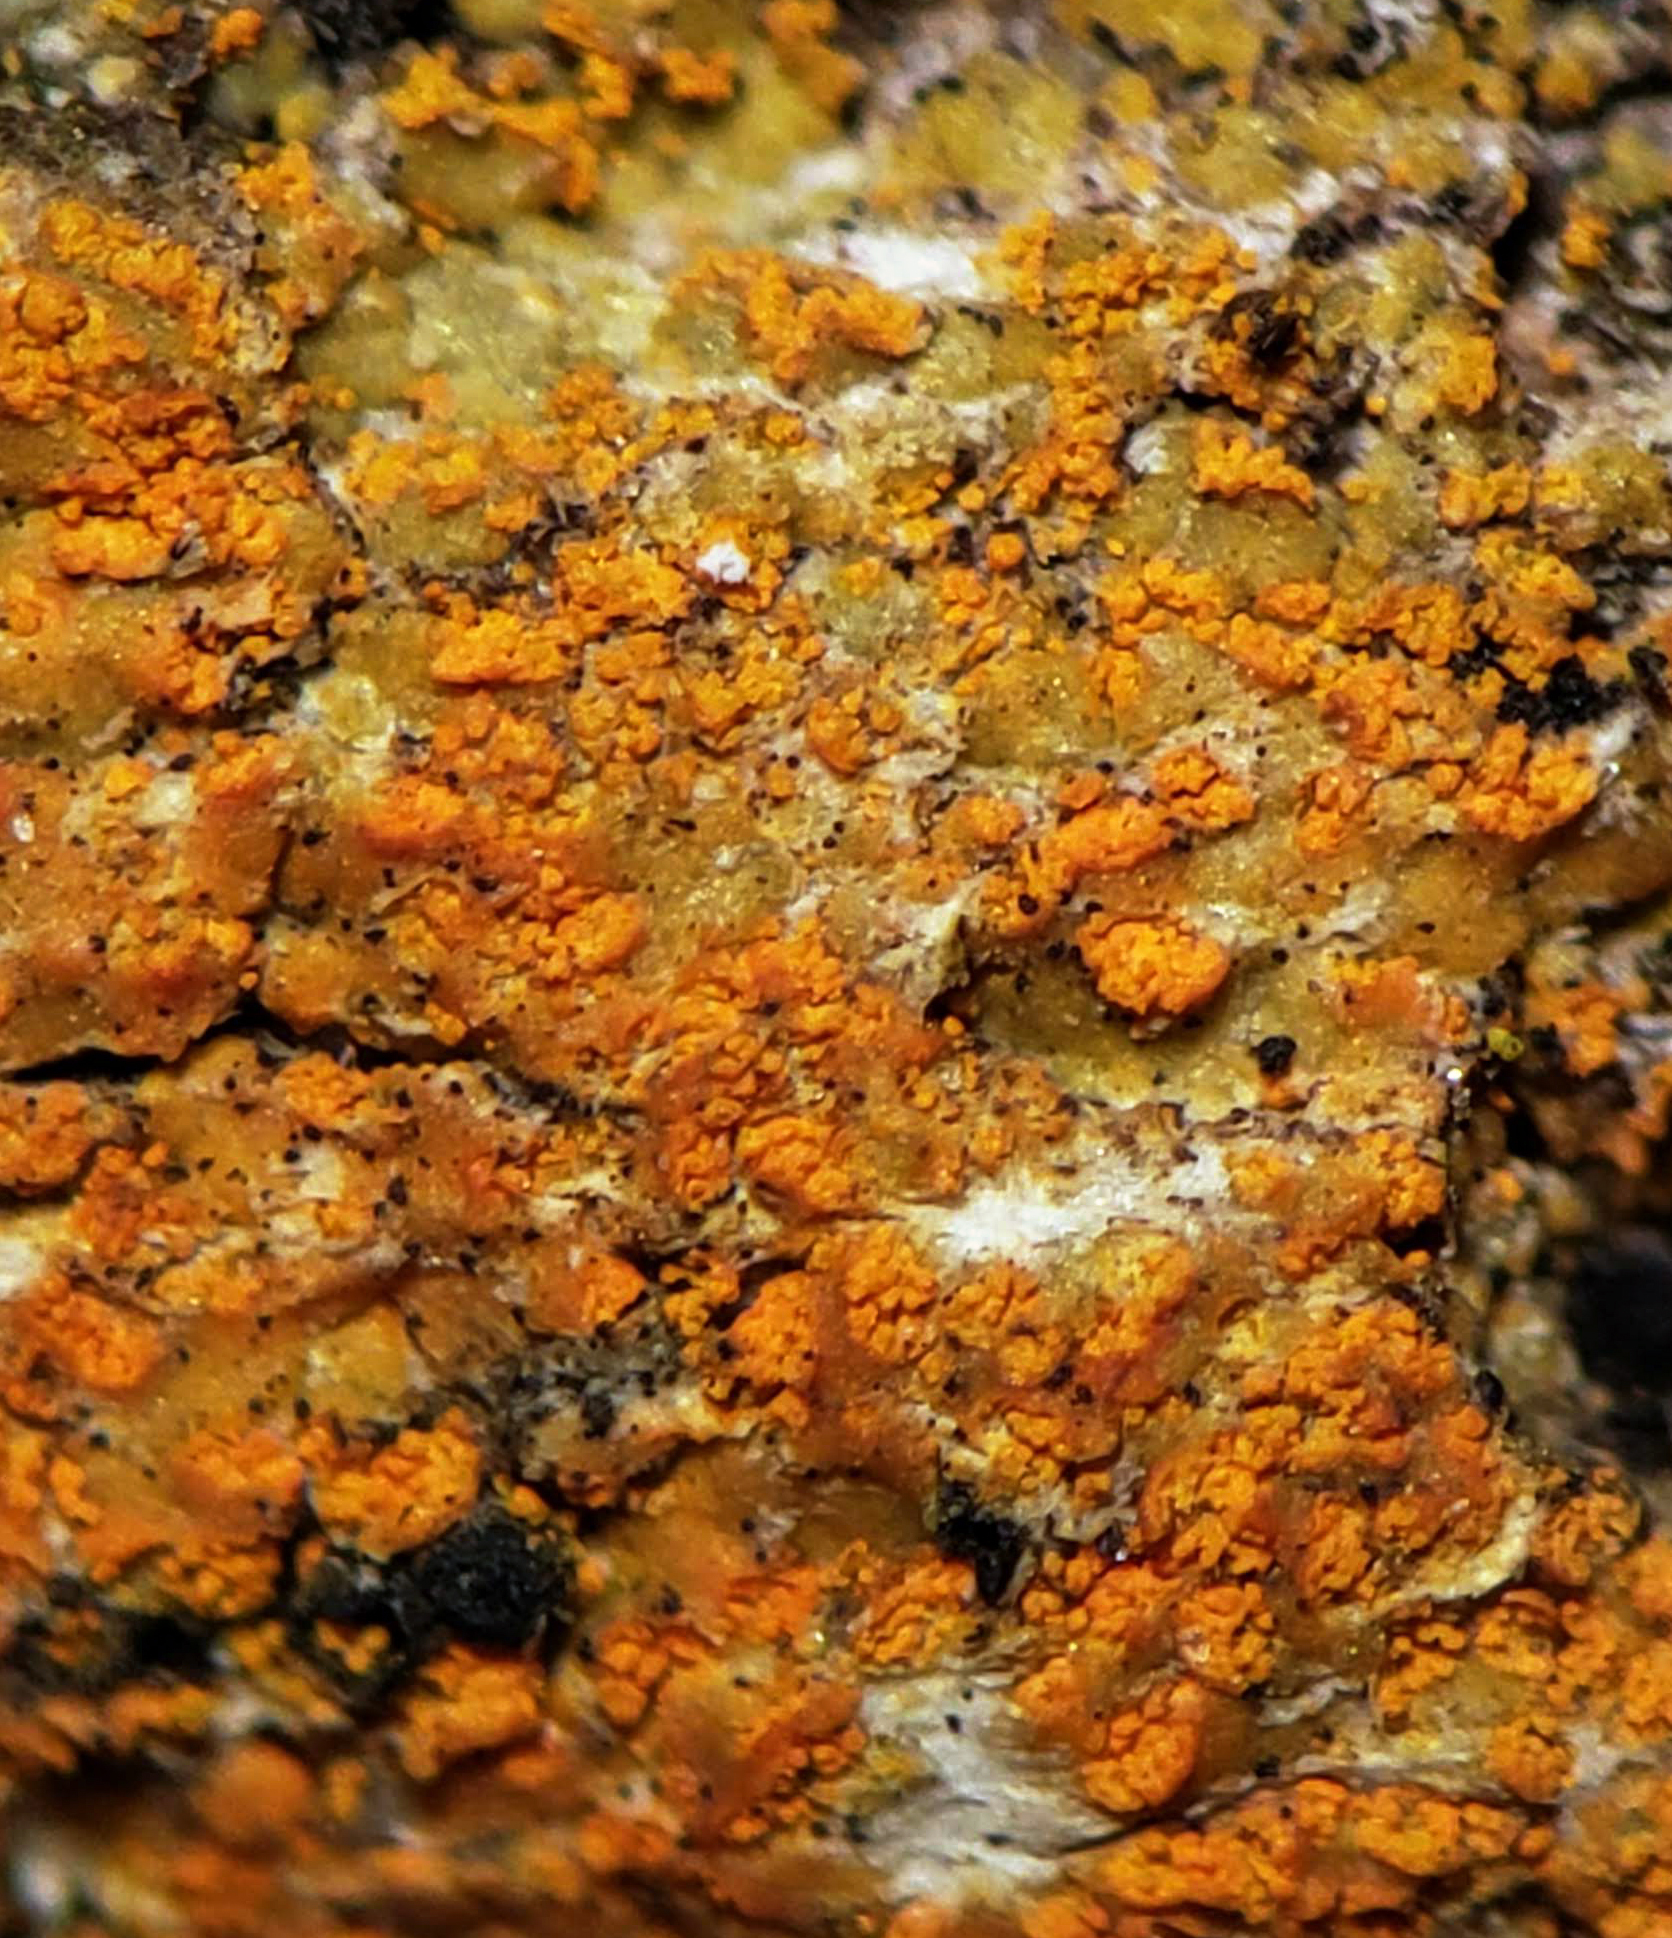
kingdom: Fungi
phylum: Ascomycota
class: Lecanoromycetes
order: Teloschistales
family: Teloschistaceae
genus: Tayloriellina
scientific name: Tayloriellina microphyllina
